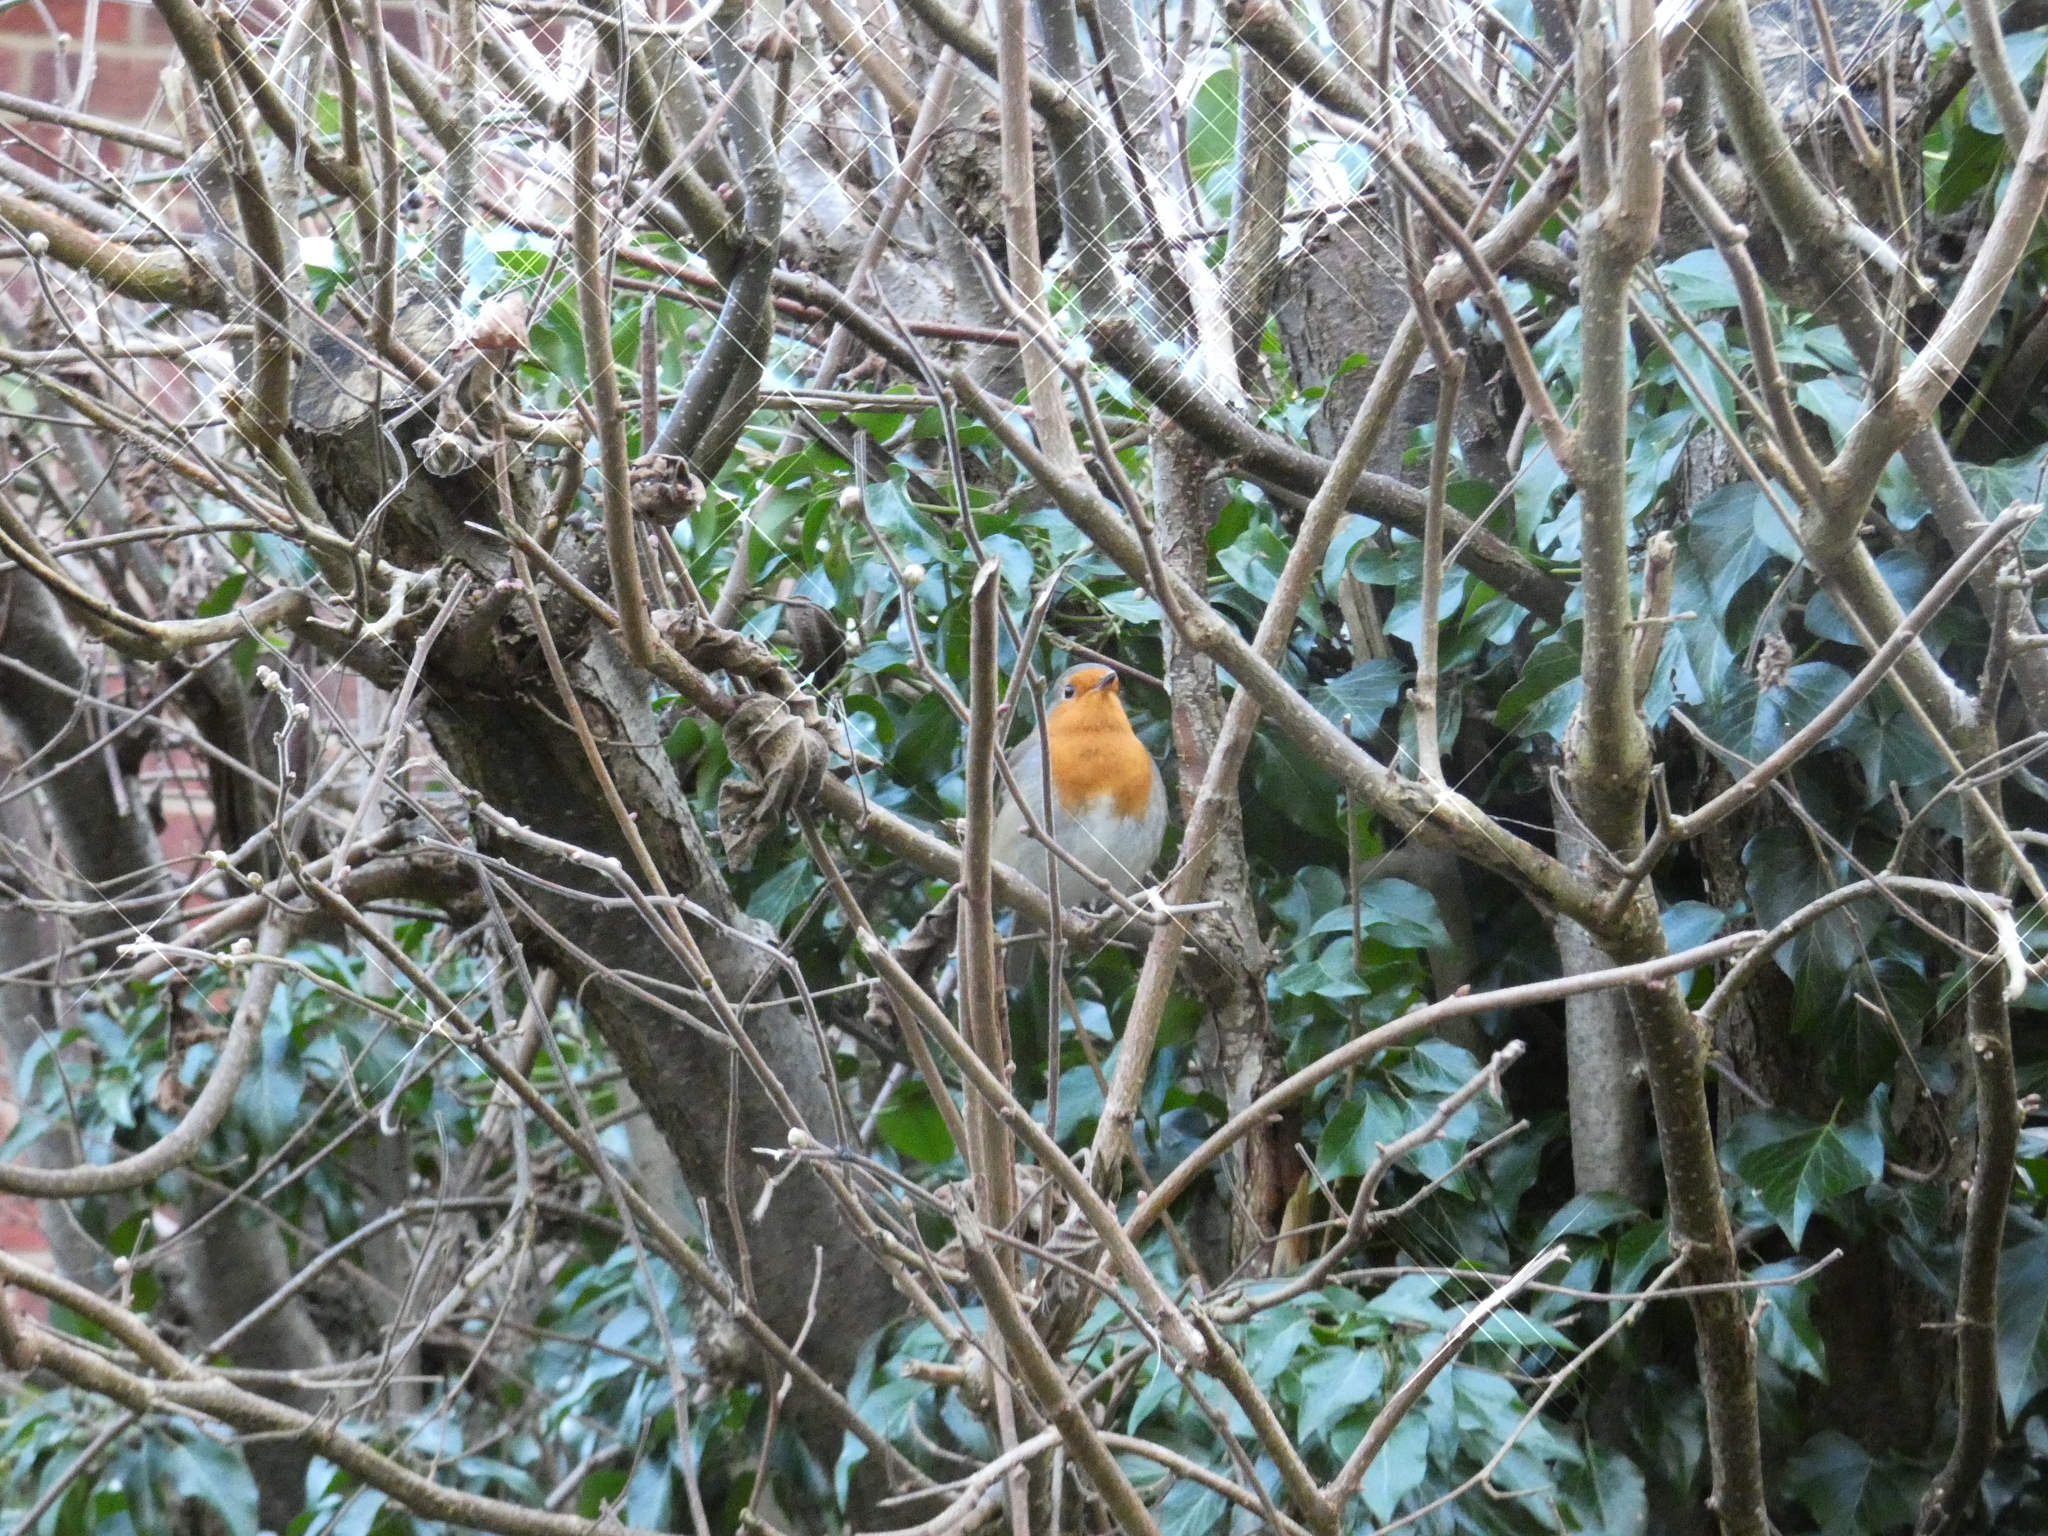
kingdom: Animalia
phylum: Chordata
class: Aves
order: Passeriformes
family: Muscicapidae
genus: Erithacus
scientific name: Erithacus rubecula
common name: European robin
